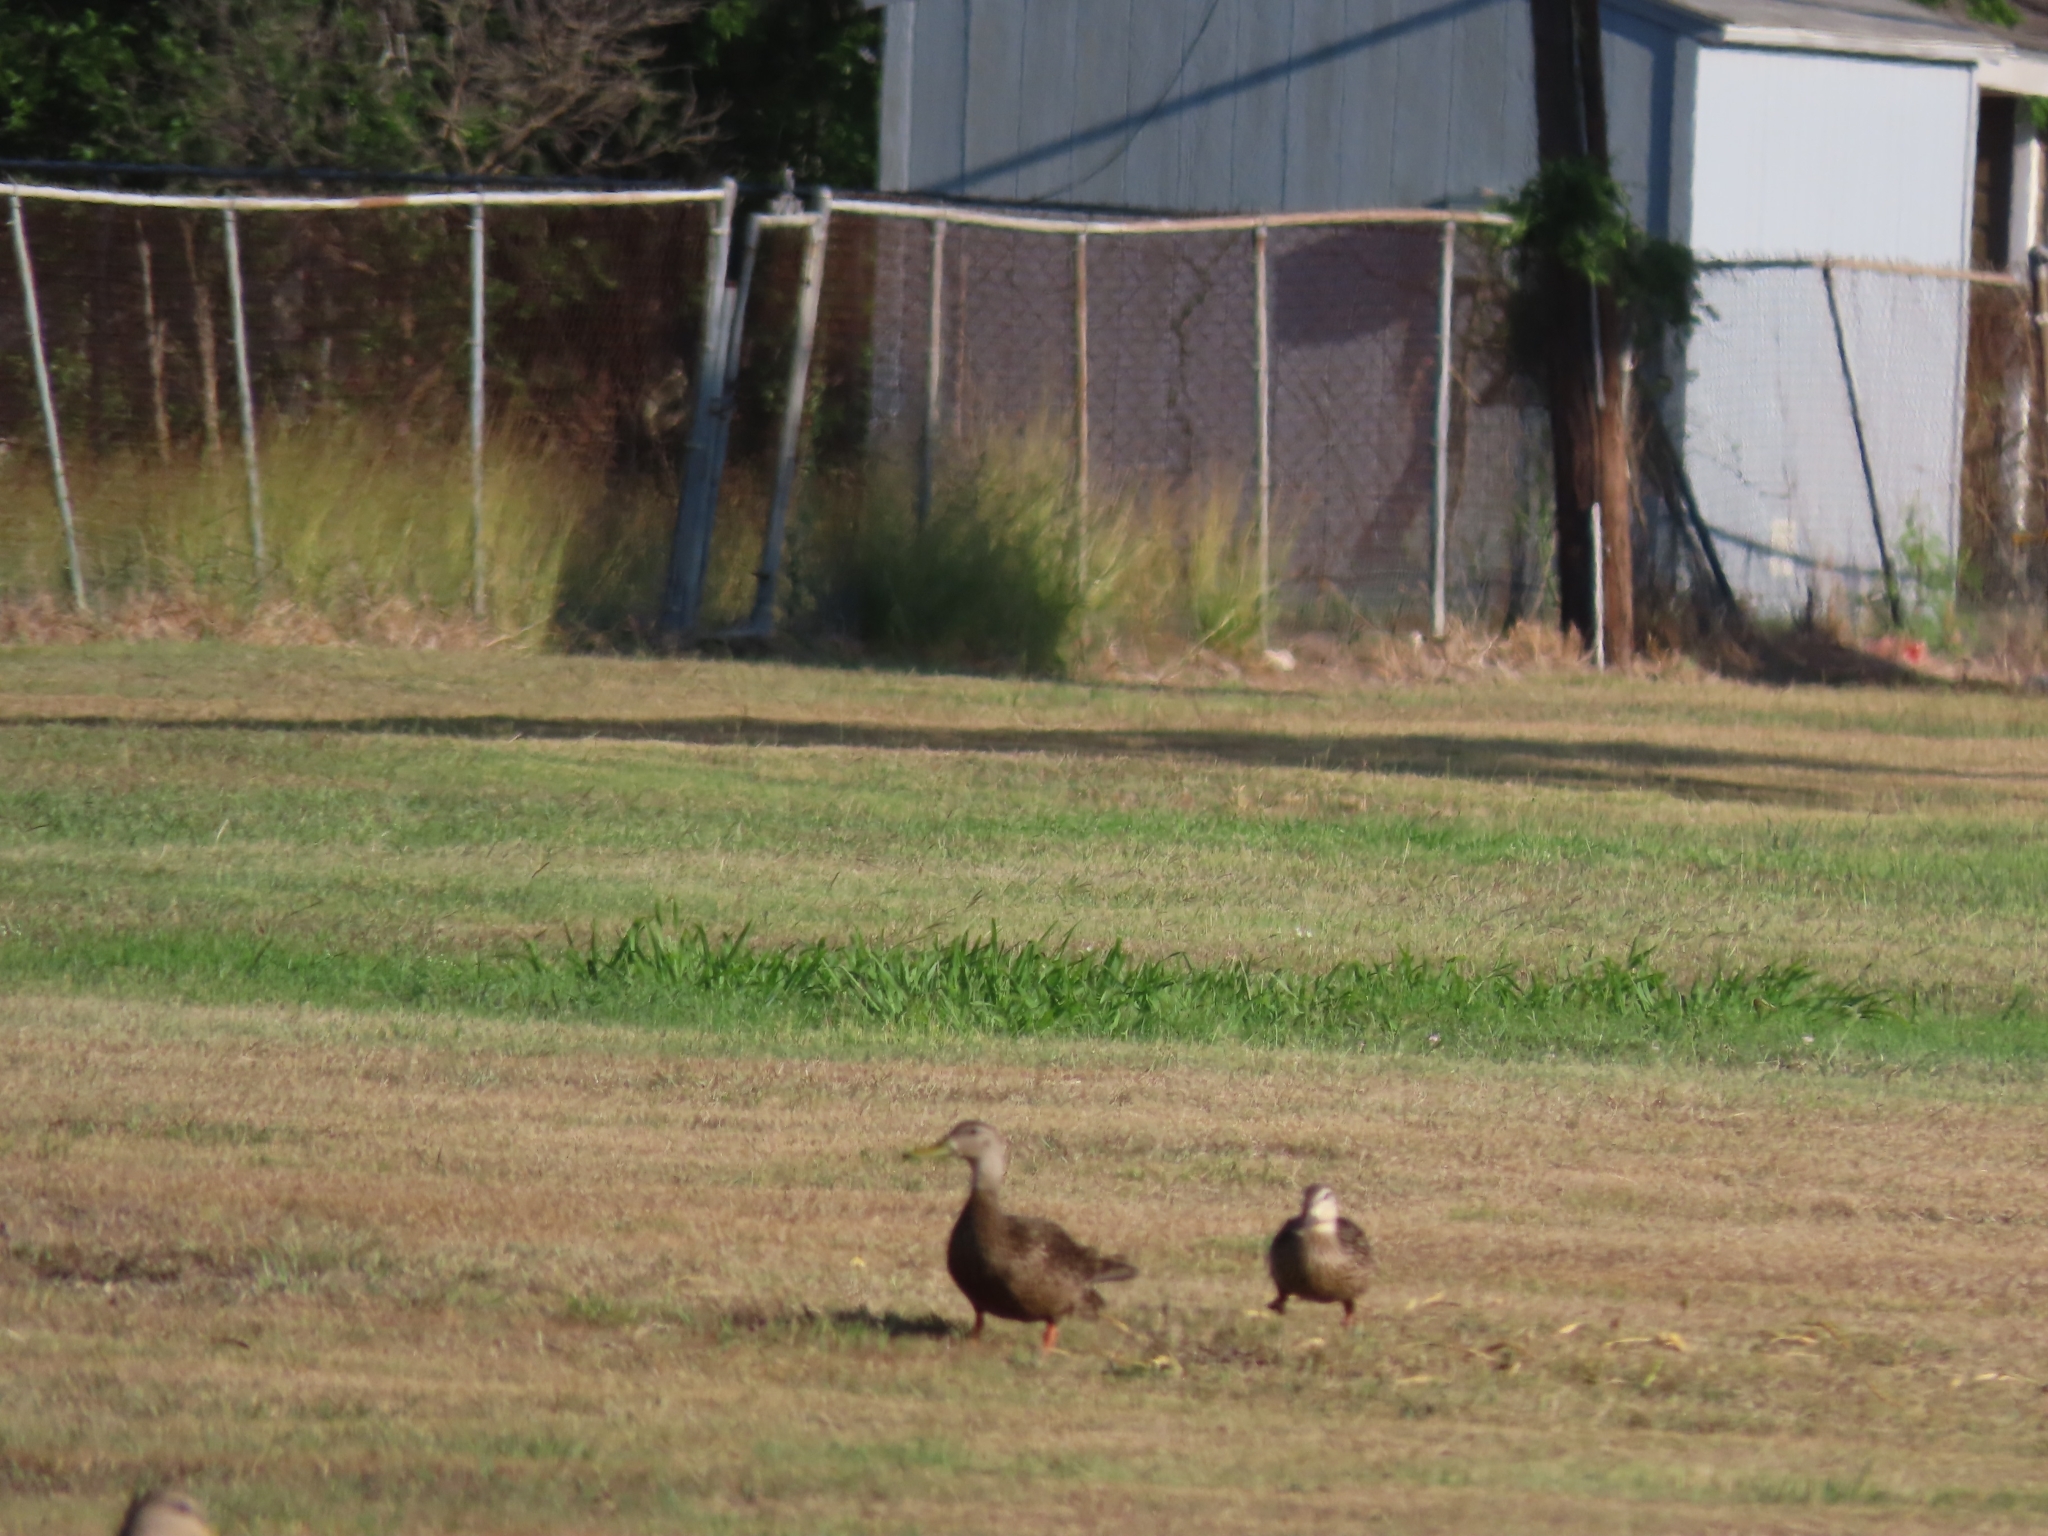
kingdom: Animalia
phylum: Chordata
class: Aves
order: Anseriformes
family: Anatidae
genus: Anas
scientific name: Anas fulvigula
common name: Mottled duck
